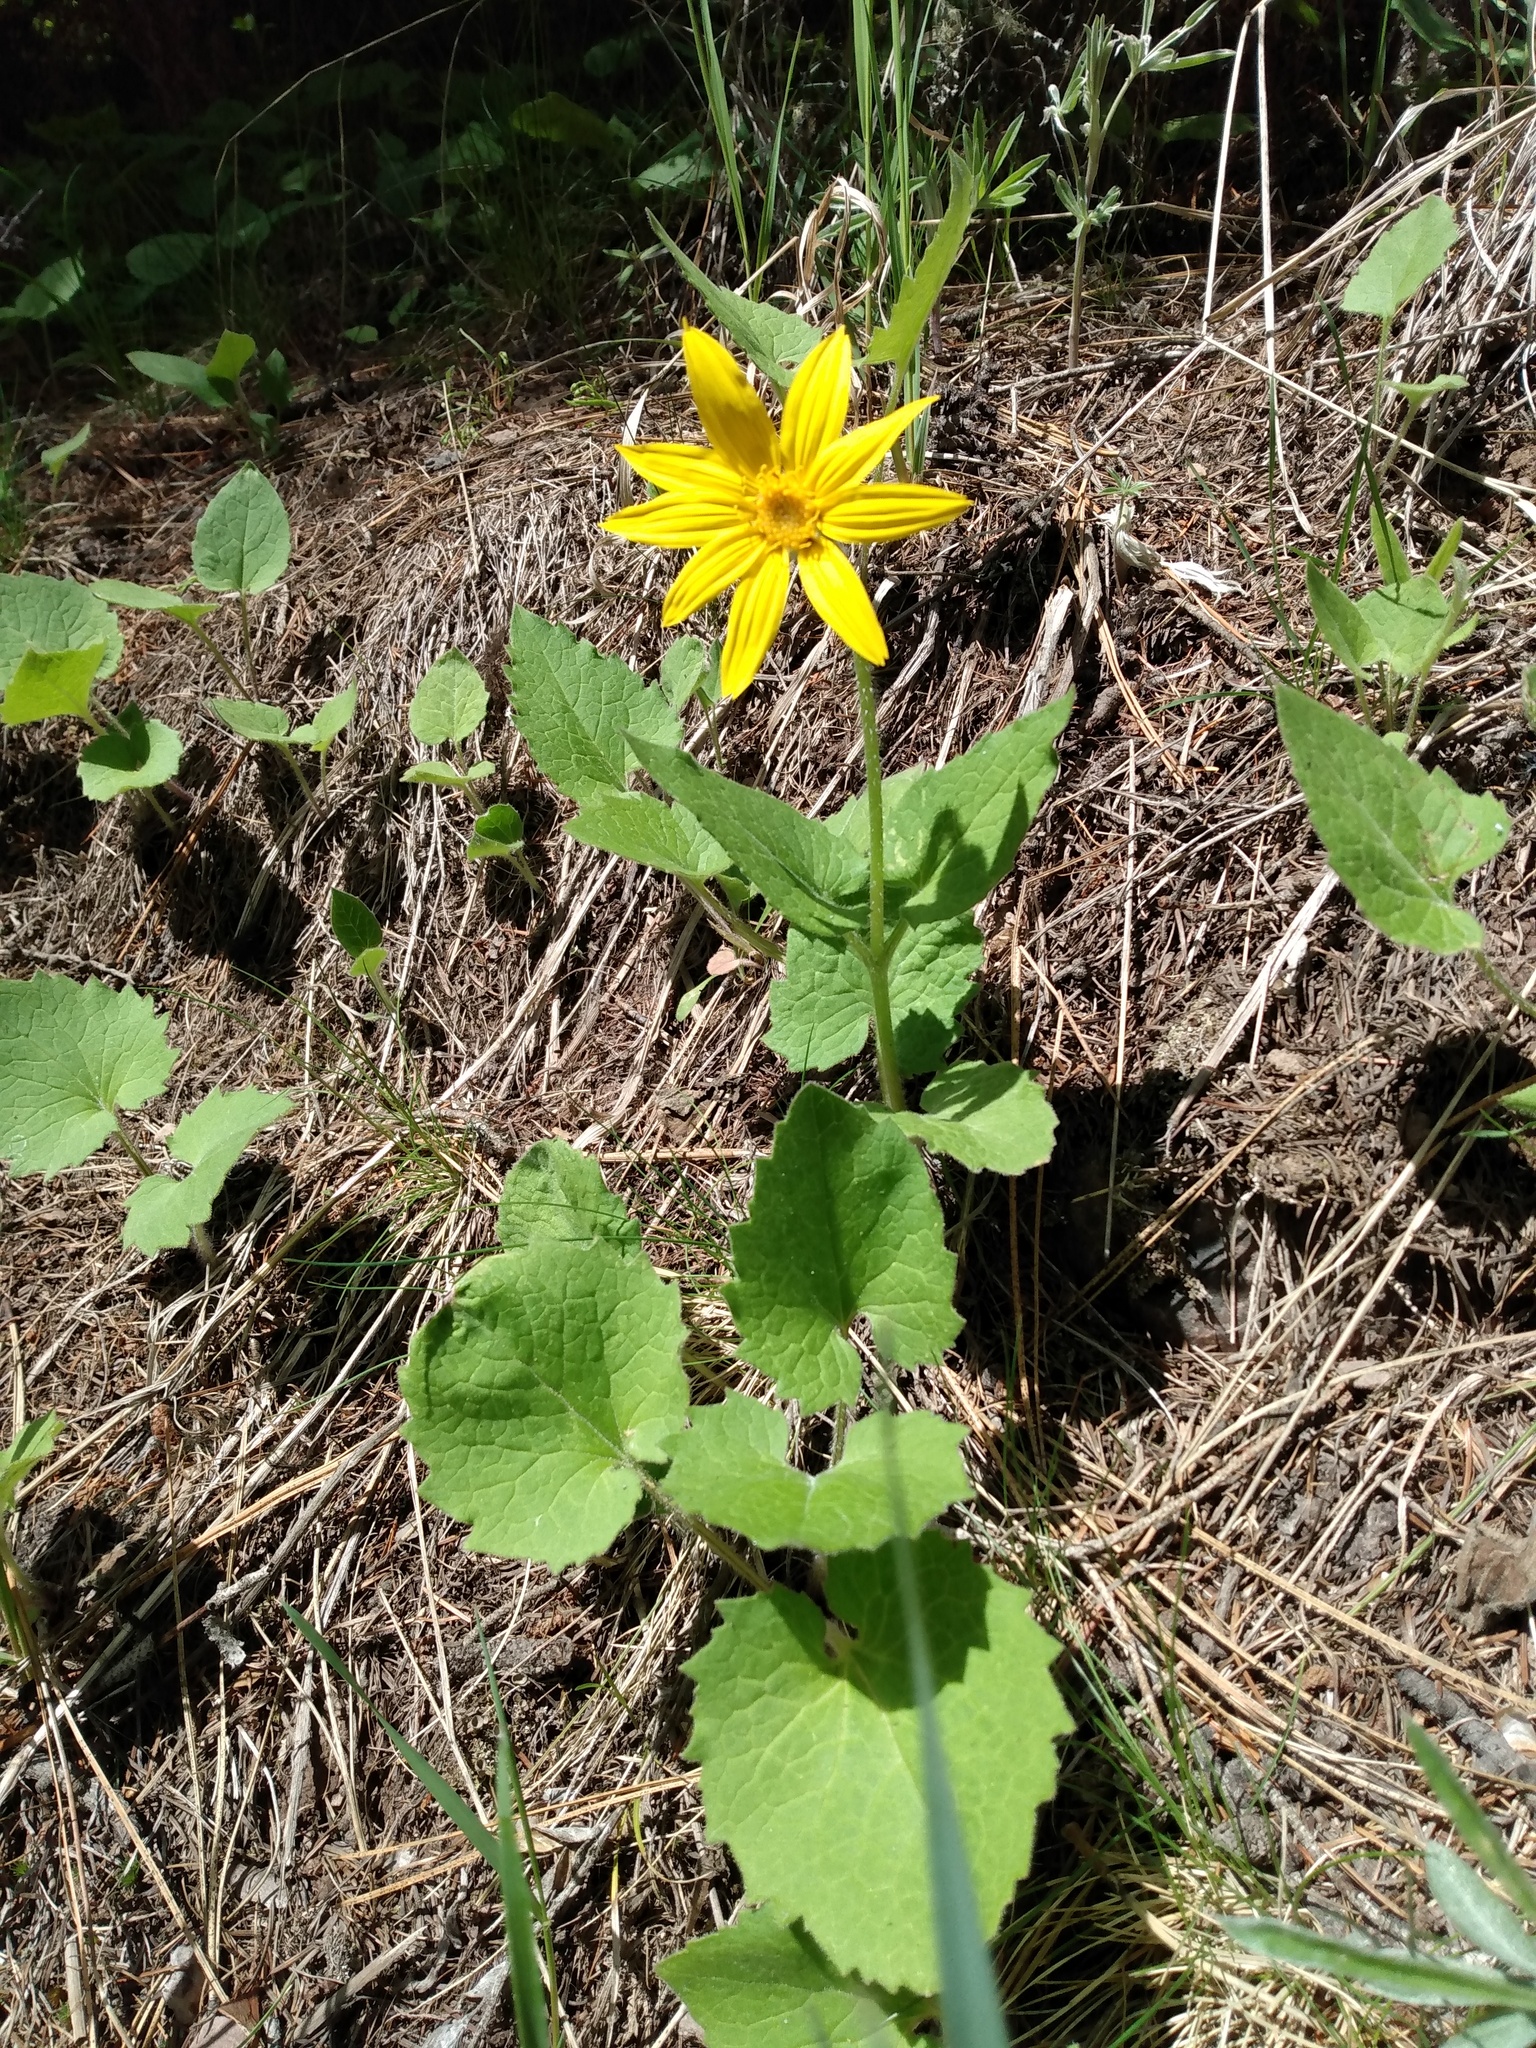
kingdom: Plantae
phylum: Tracheophyta
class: Magnoliopsida
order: Asterales
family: Asteraceae
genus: Arnica
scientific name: Arnica cordifolia
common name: Heart-leaf arnica
